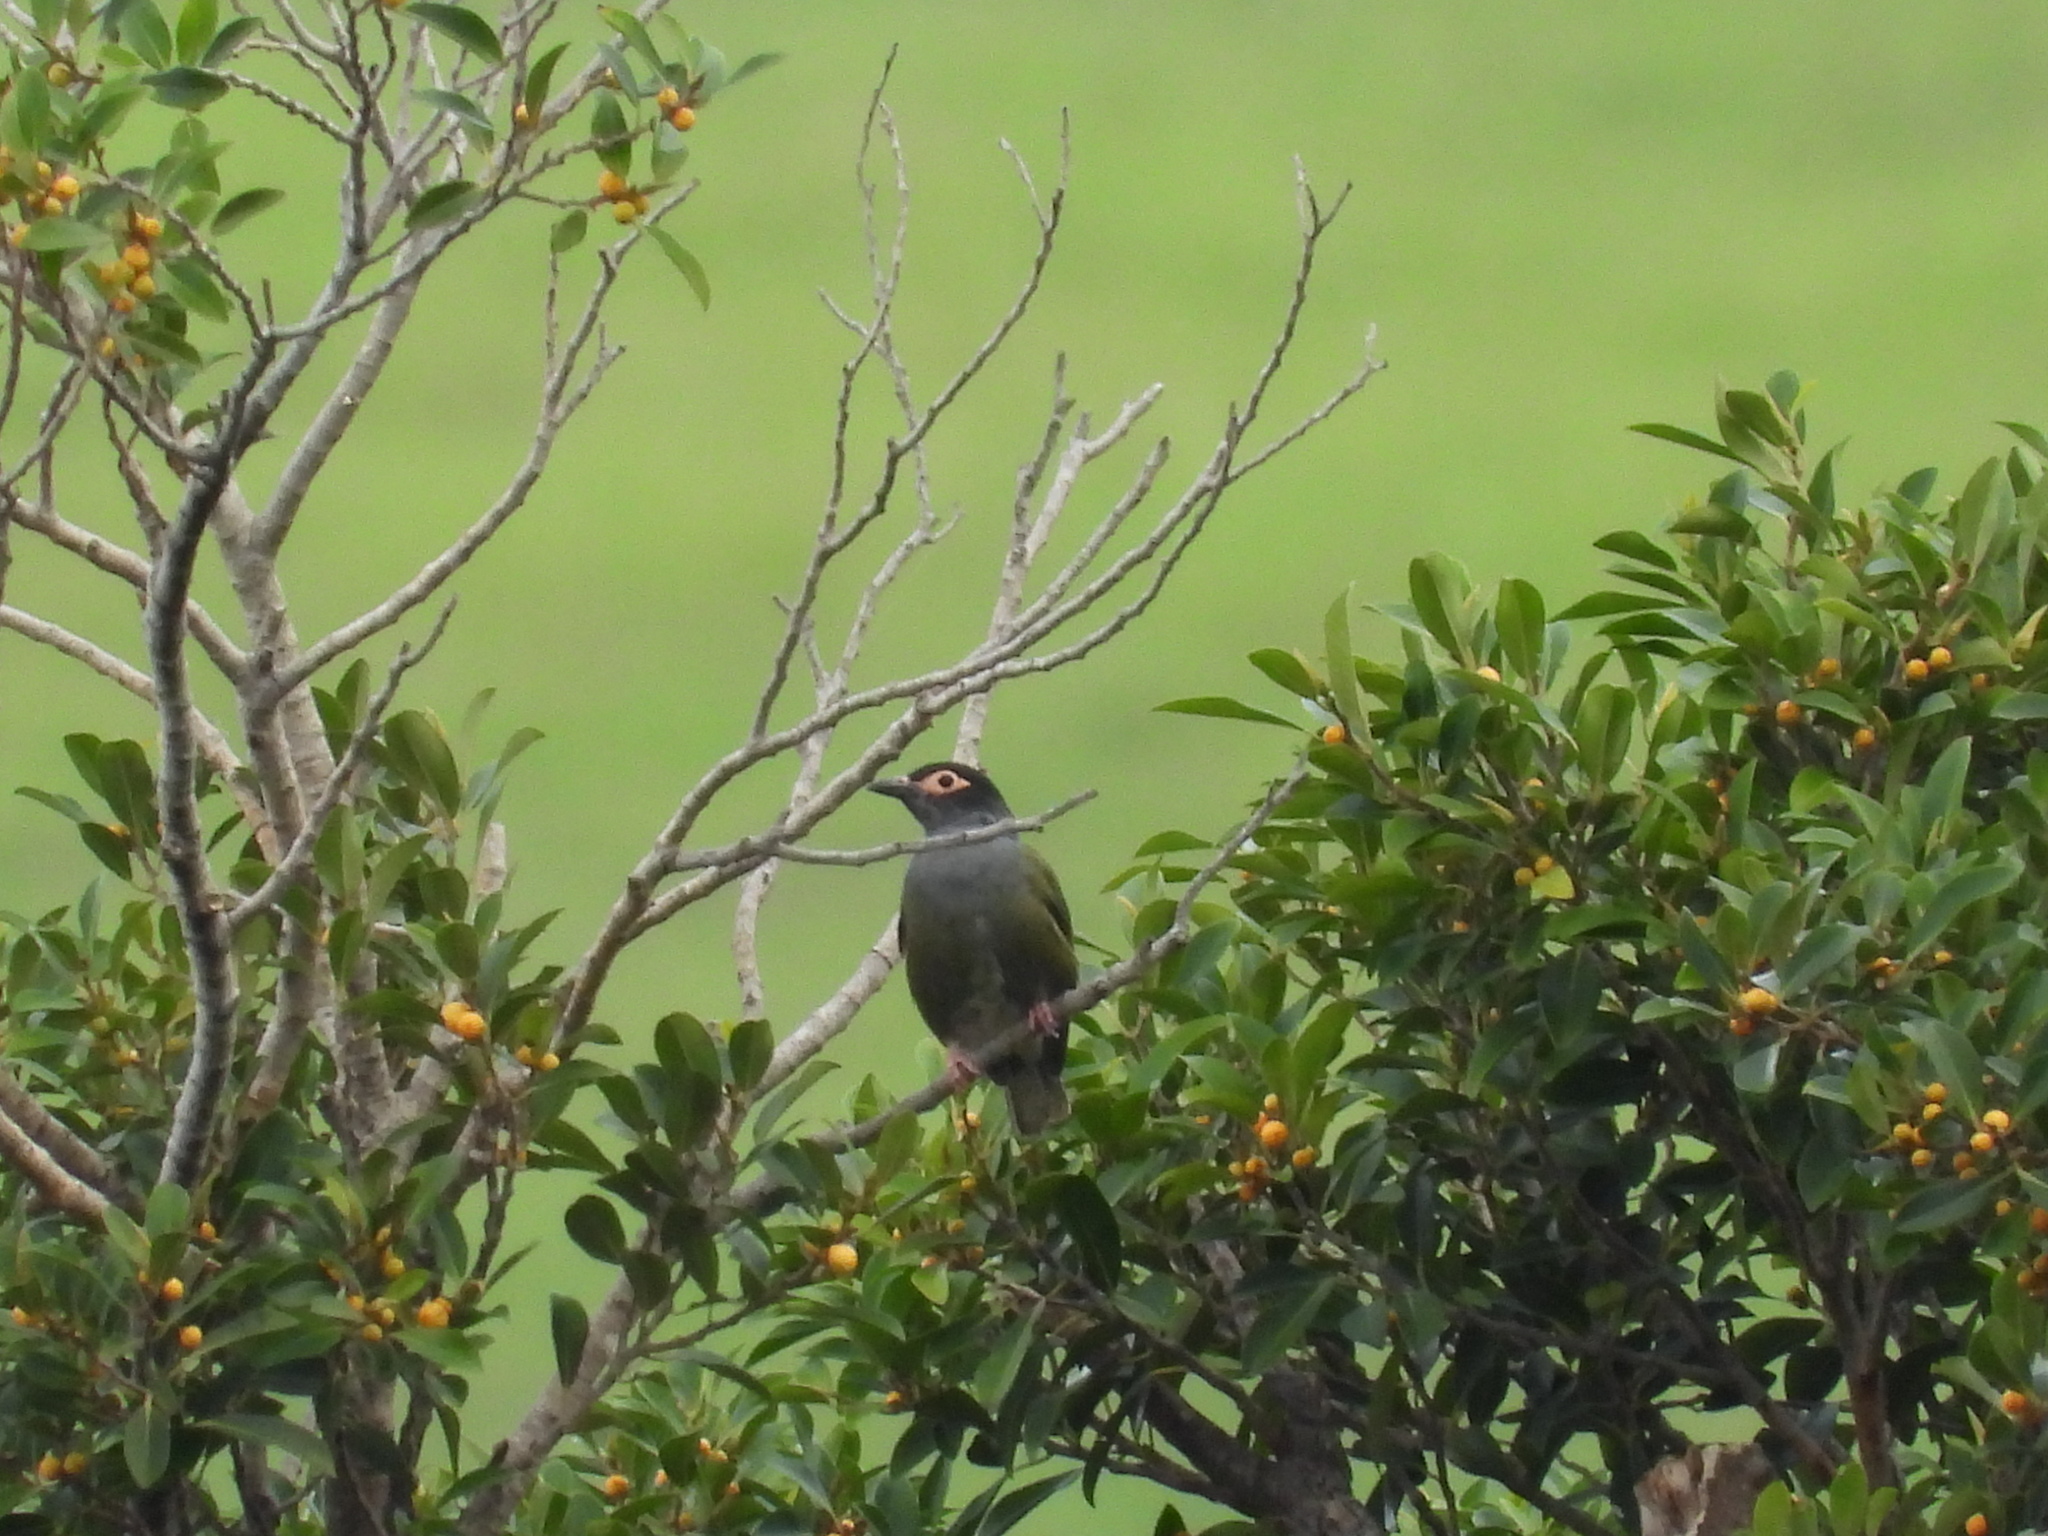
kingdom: Animalia
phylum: Chordata
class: Aves
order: Passeriformes
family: Oriolidae
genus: Sphecotheres
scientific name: Sphecotheres vieilloti
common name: Australasian figbird
